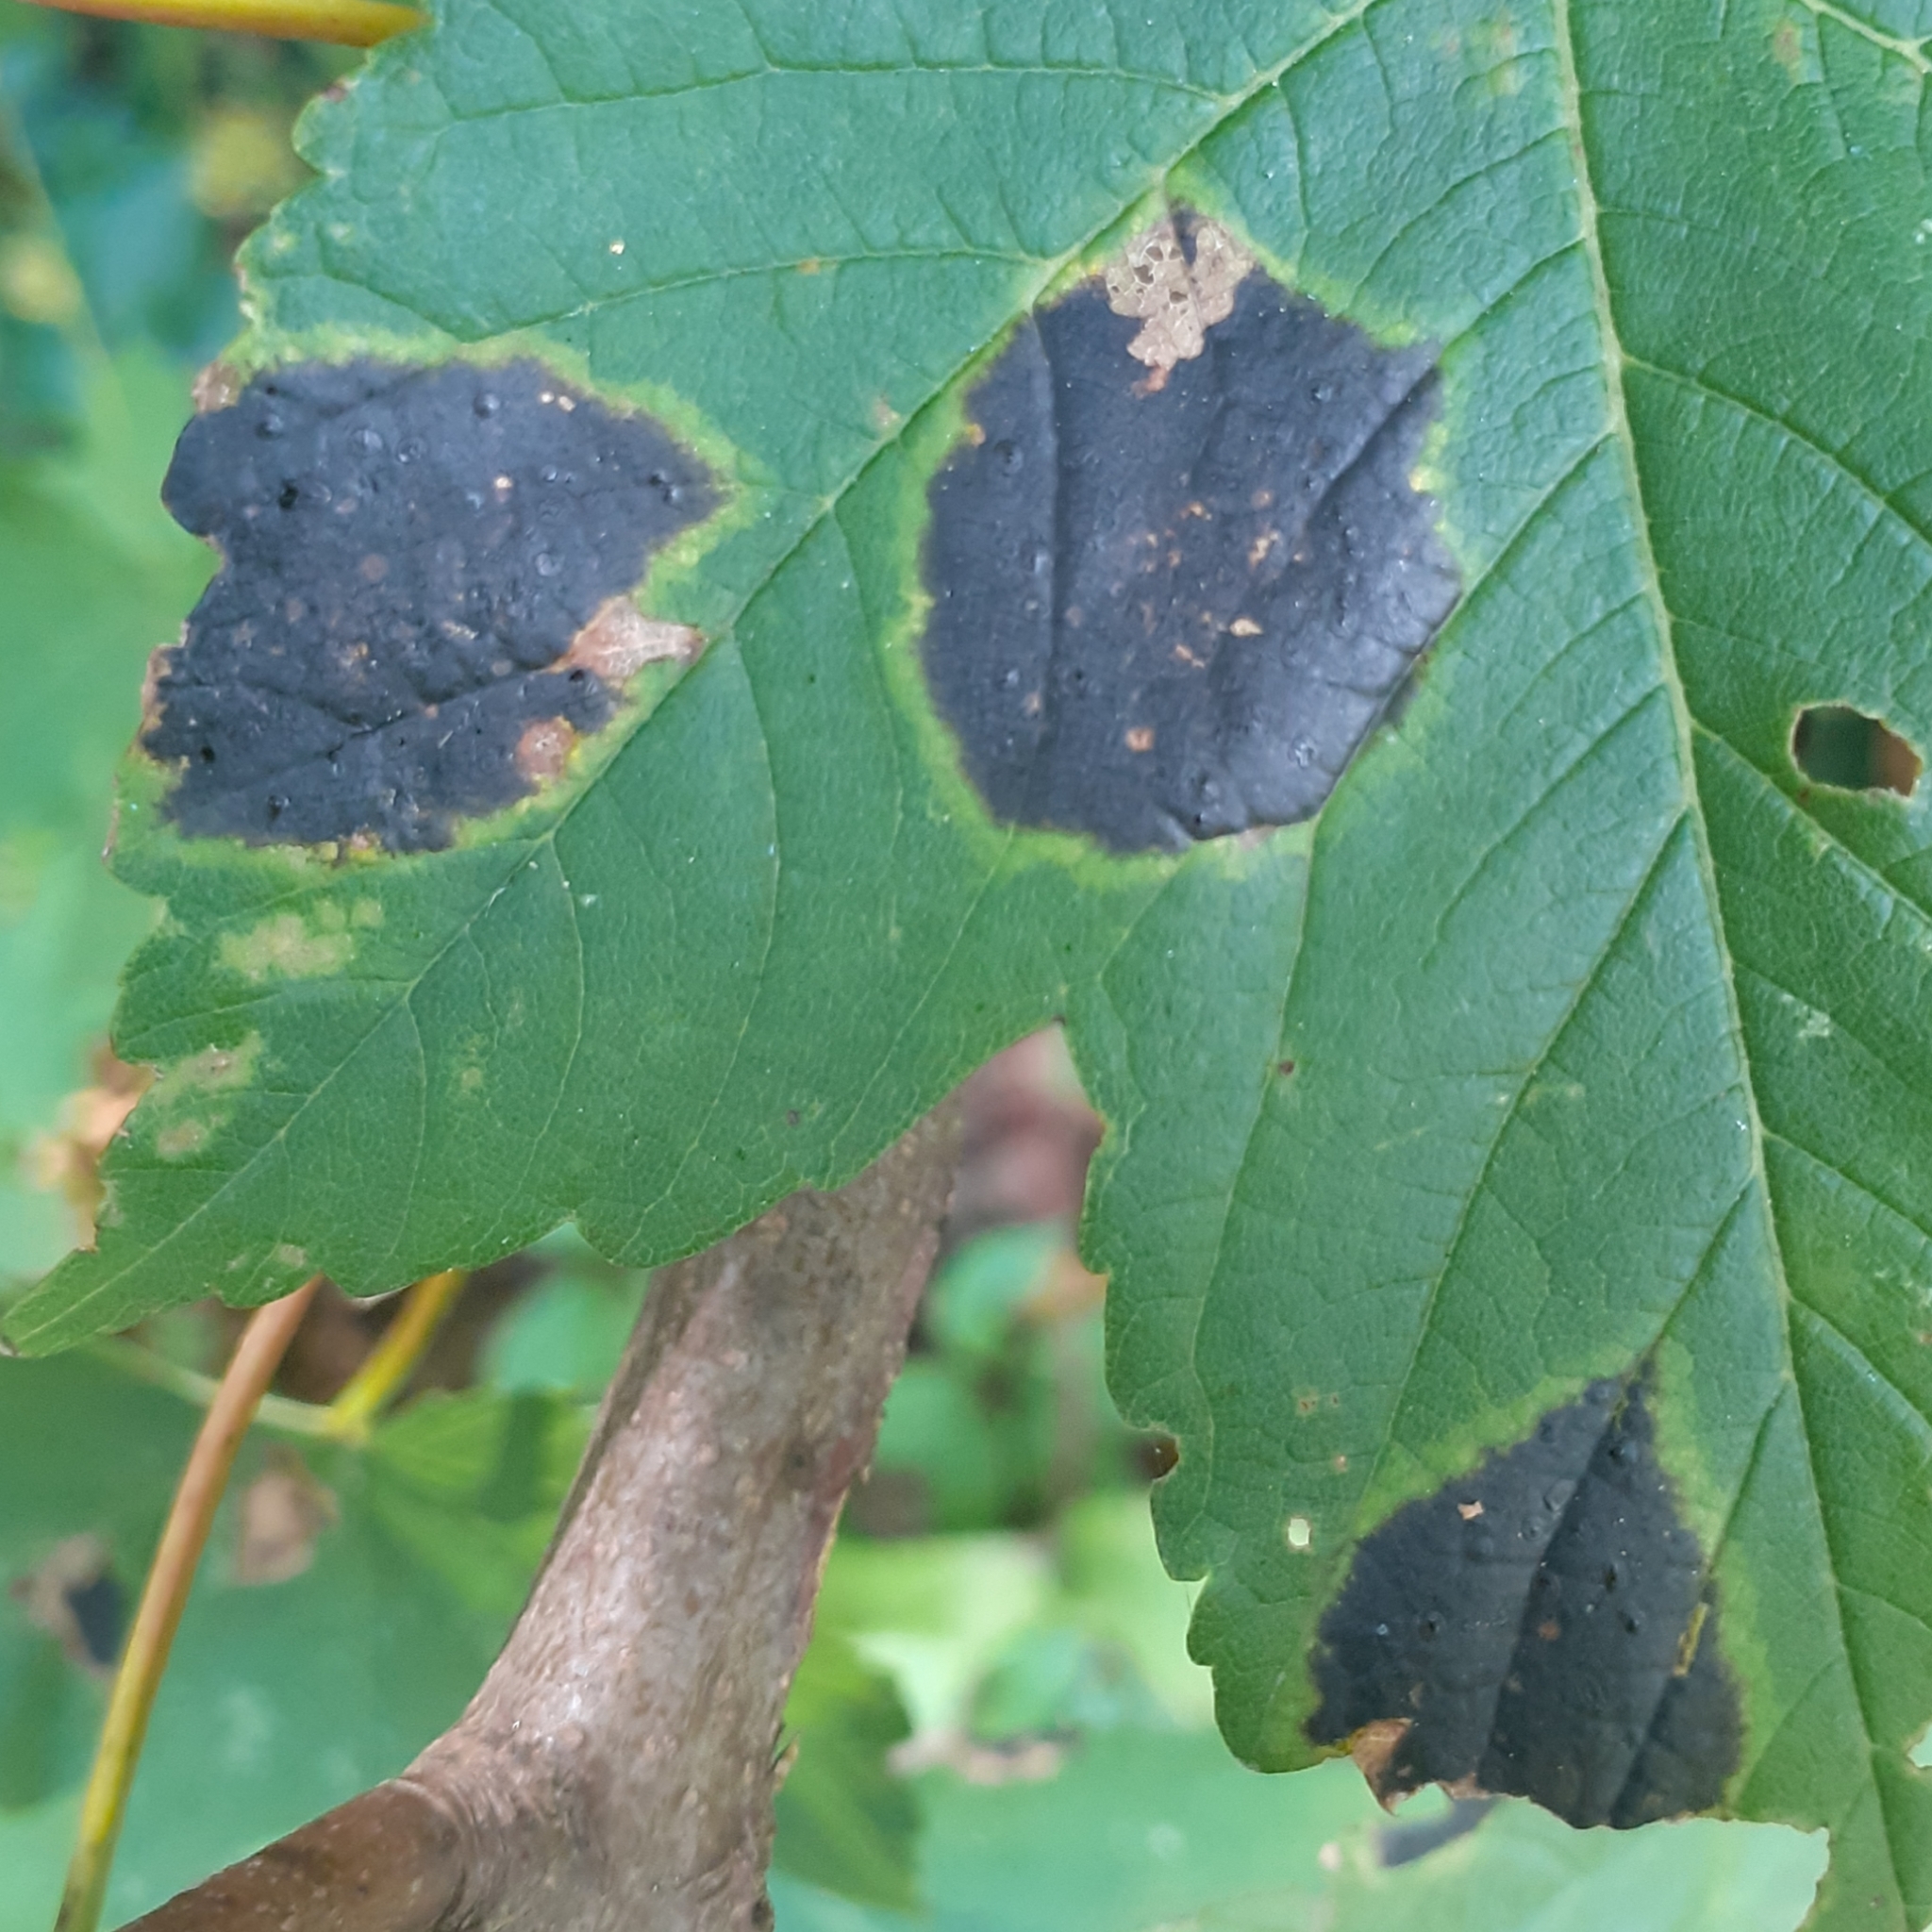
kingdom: Fungi
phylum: Ascomycota
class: Leotiomycetes
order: Rhytismatales
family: Rhytismataceae
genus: Rhytisma
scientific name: Rhytisma acerinum
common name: European tar spot
